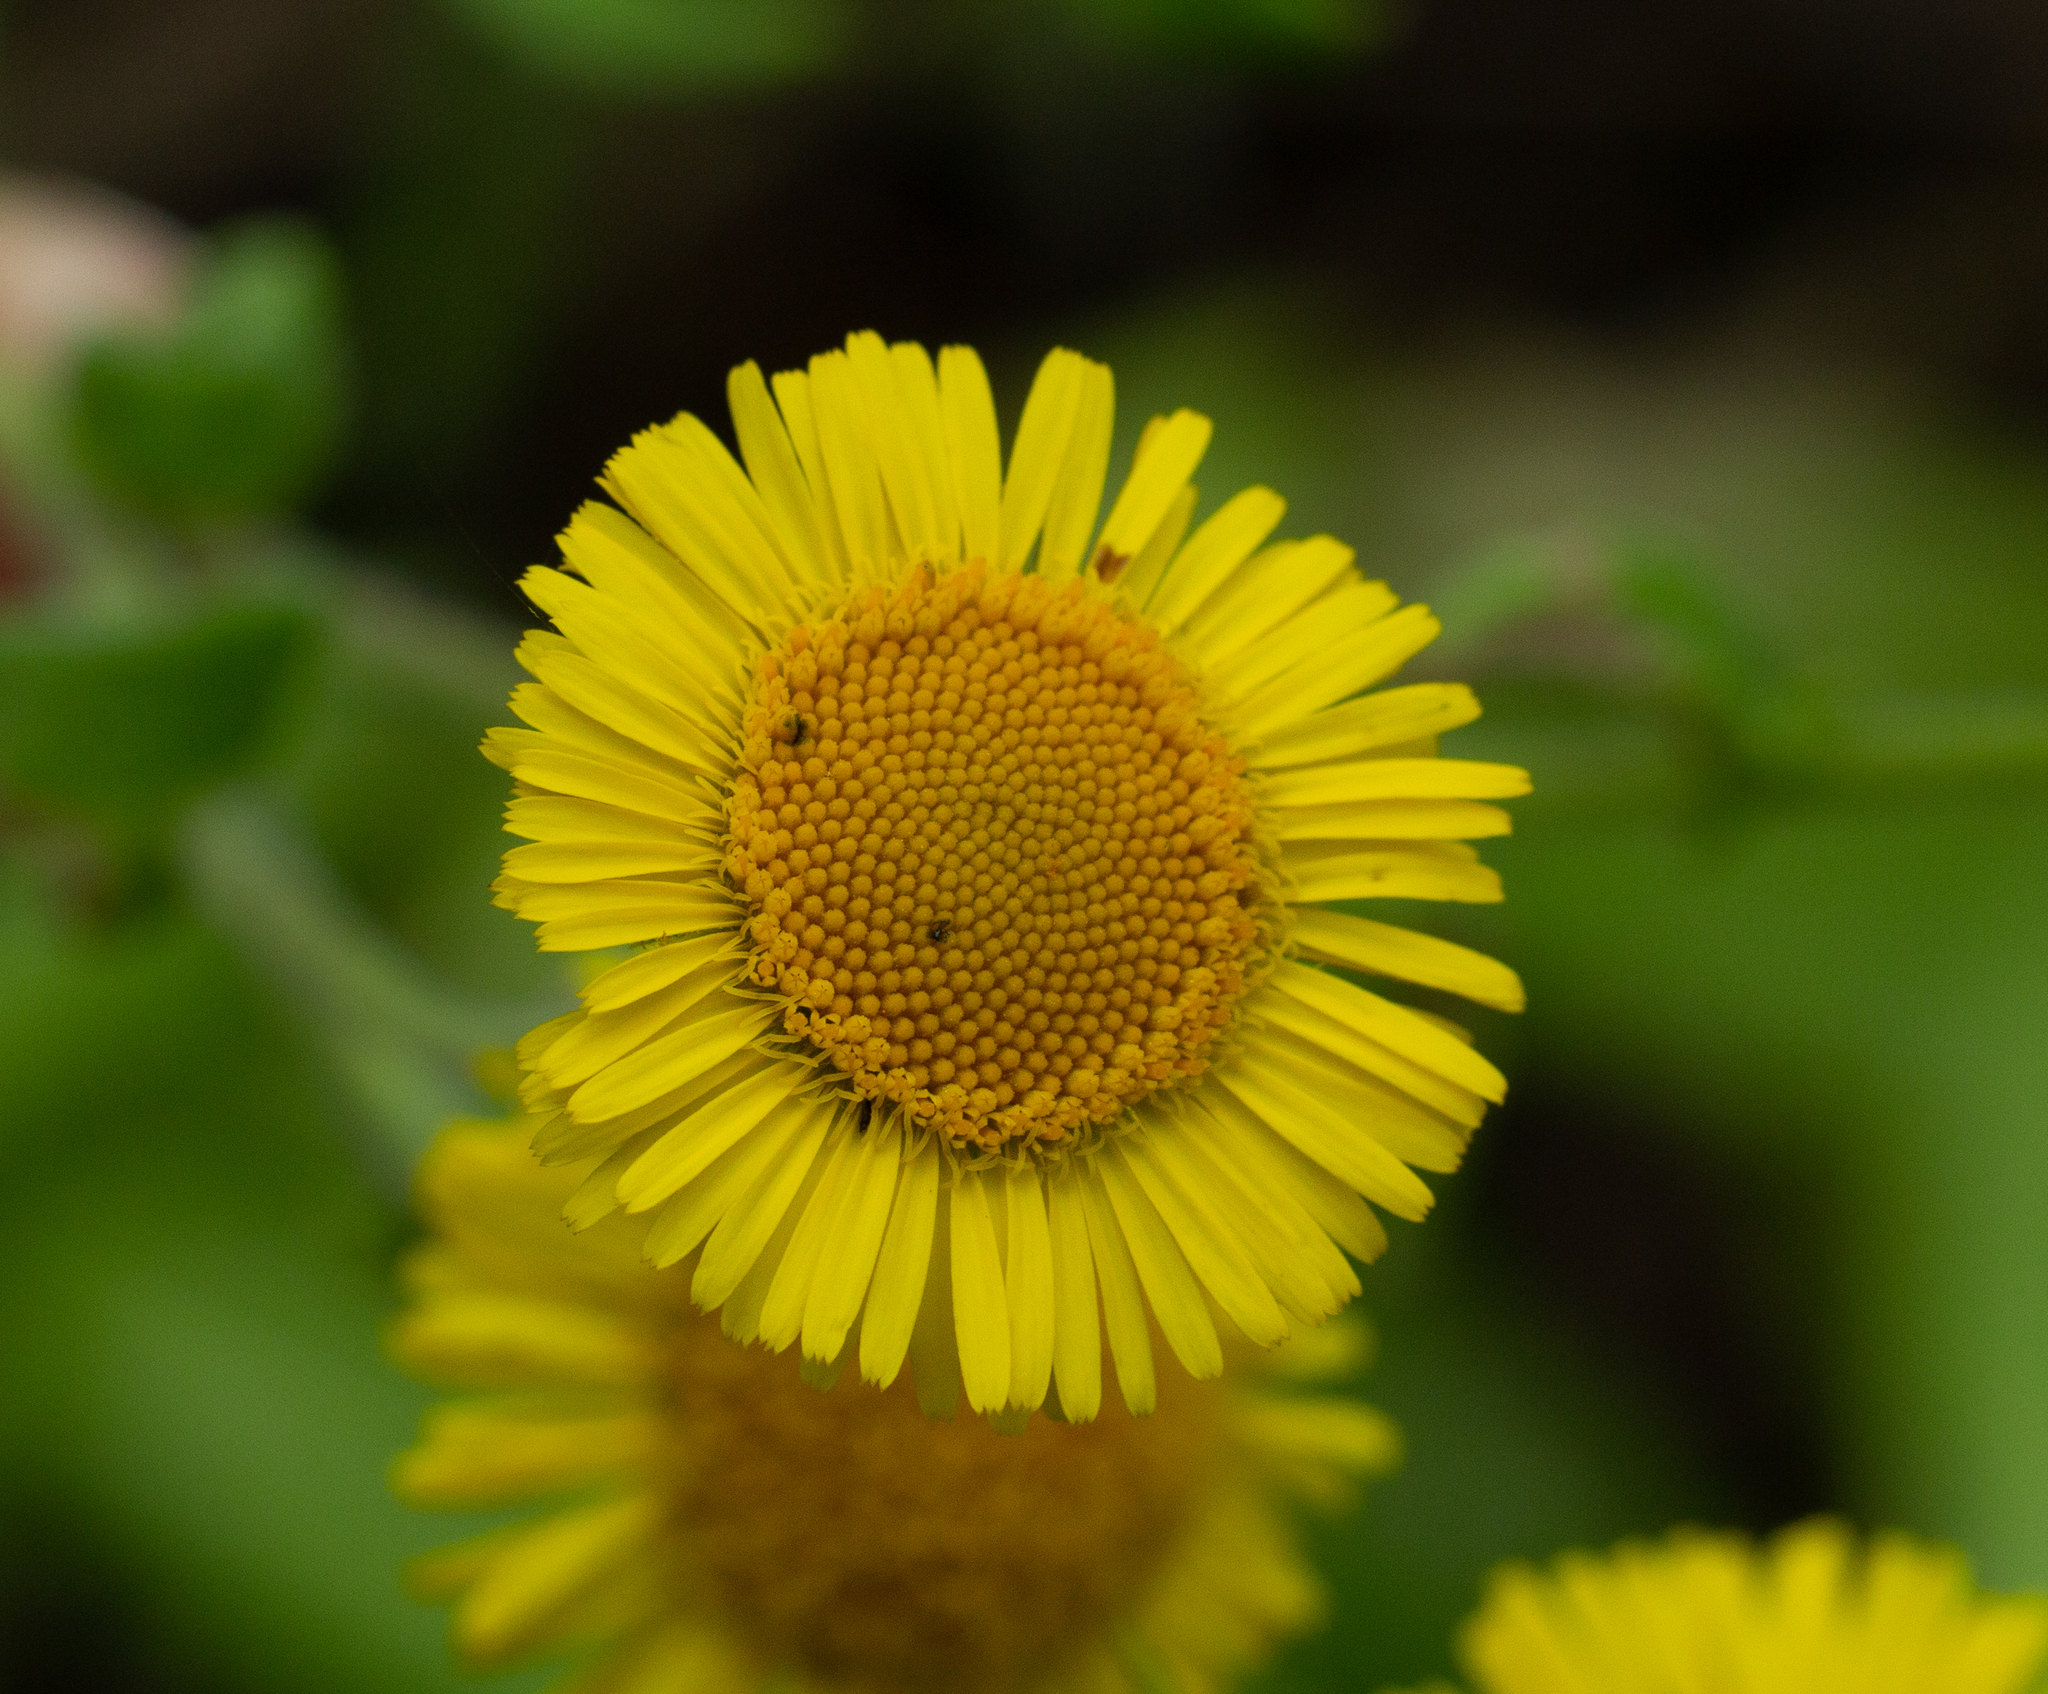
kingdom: Plantae
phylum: Tracheophyta
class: Magnoliopsida
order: Asterales
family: Asteraceae
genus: Pulicaria
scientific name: Pulicaria dysenterica
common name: Common fleabane
